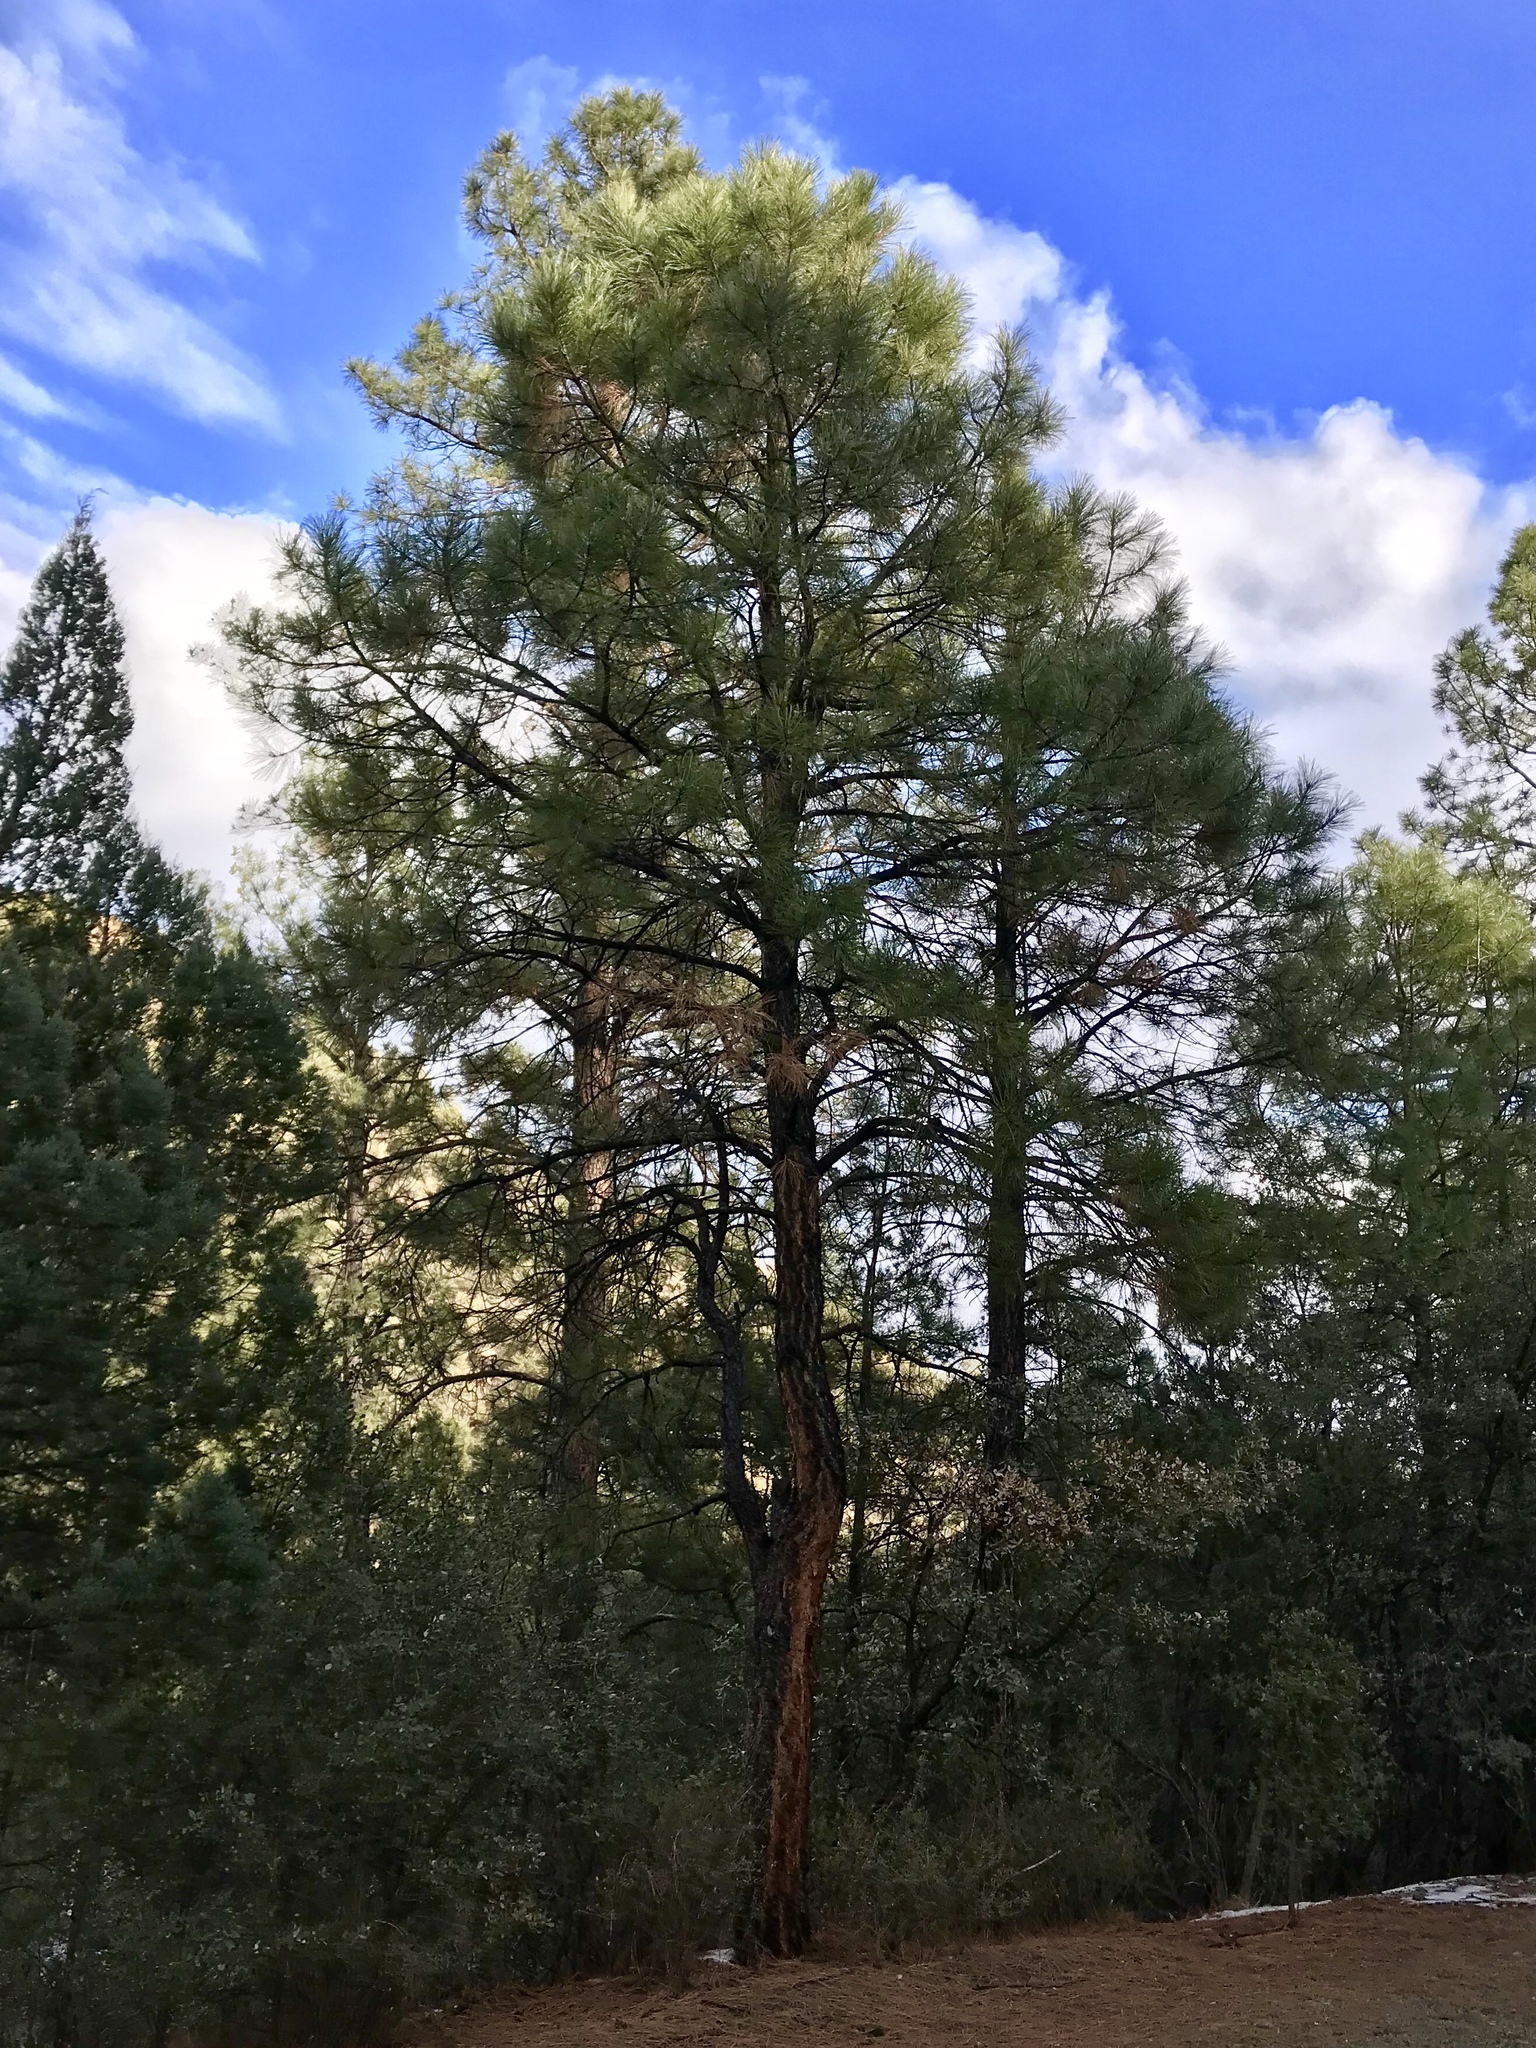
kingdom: Plantae
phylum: Tracheophyta
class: Pinopsida
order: Pinales
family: Pinaceae
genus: Pinus
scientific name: Pinus ponderosa
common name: Western yellow-pine
